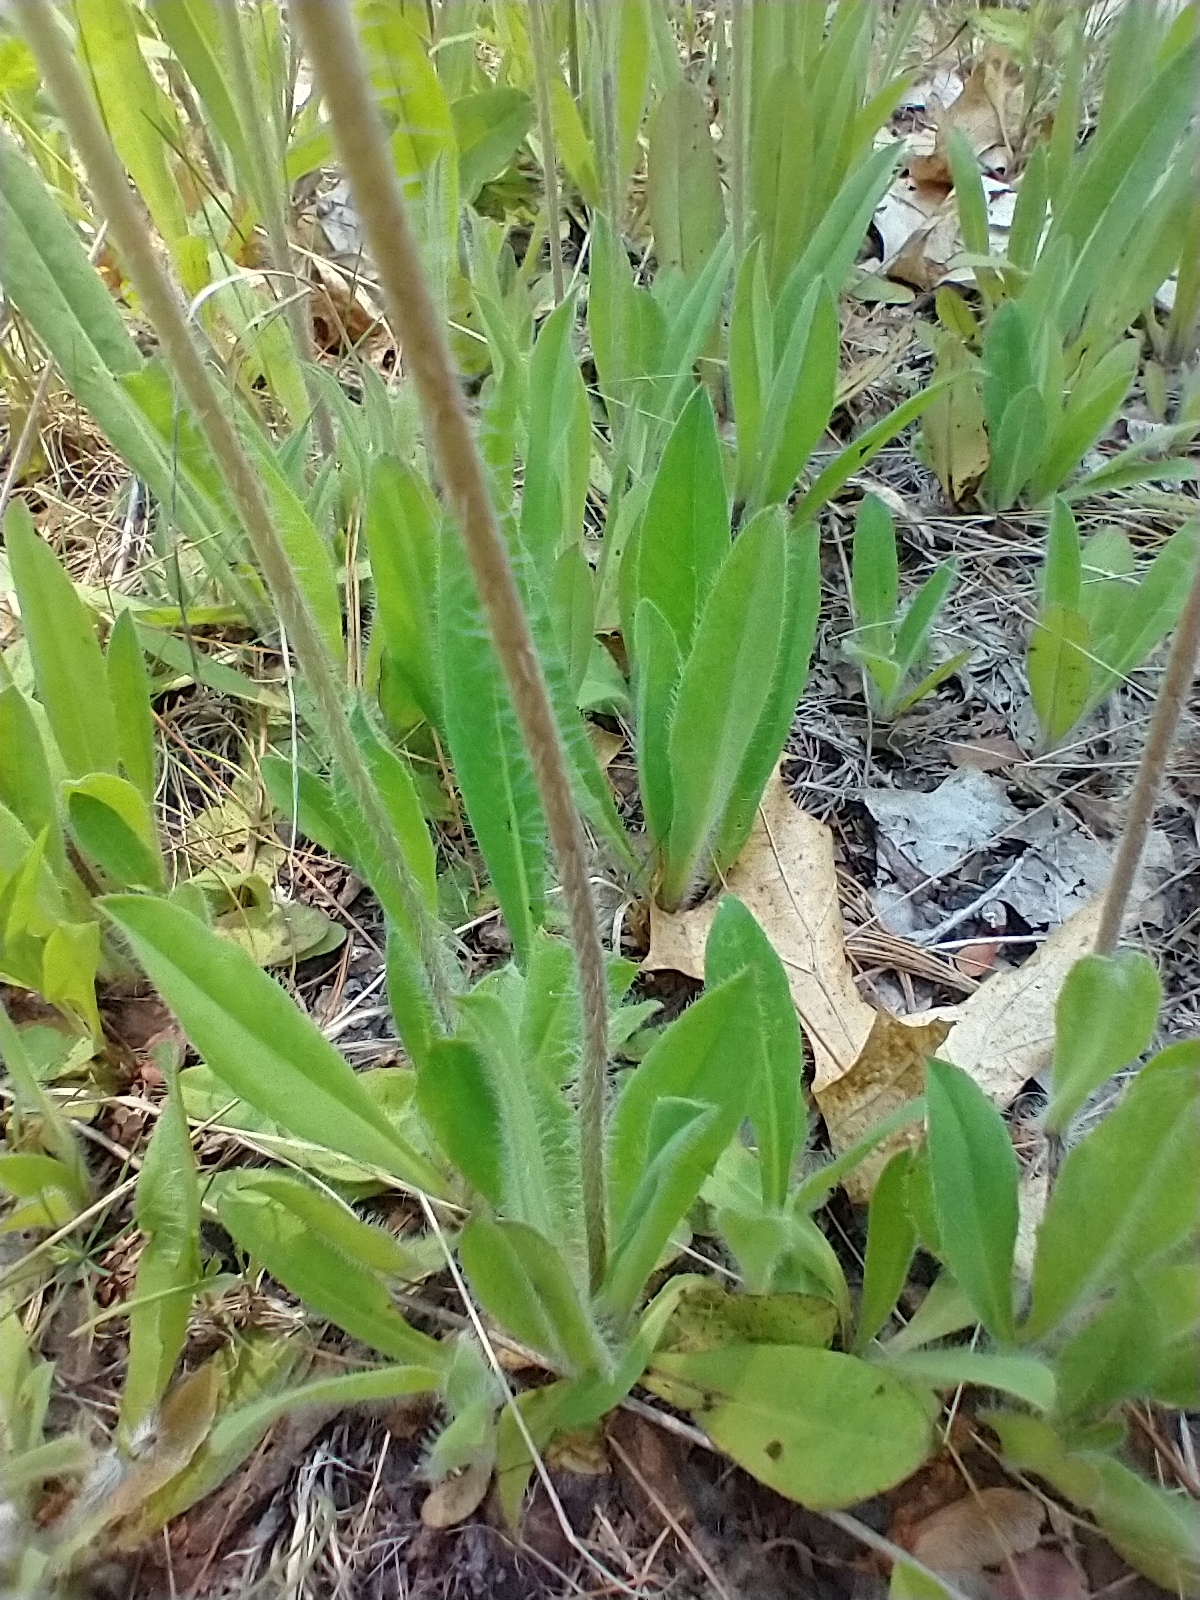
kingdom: Plantae
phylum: Tracheophyta
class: Magnoliopsida
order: Asterales
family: Asteraceae
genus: Pilosella
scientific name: Pilosella caespitosa
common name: Yellow fox-and-cubs
